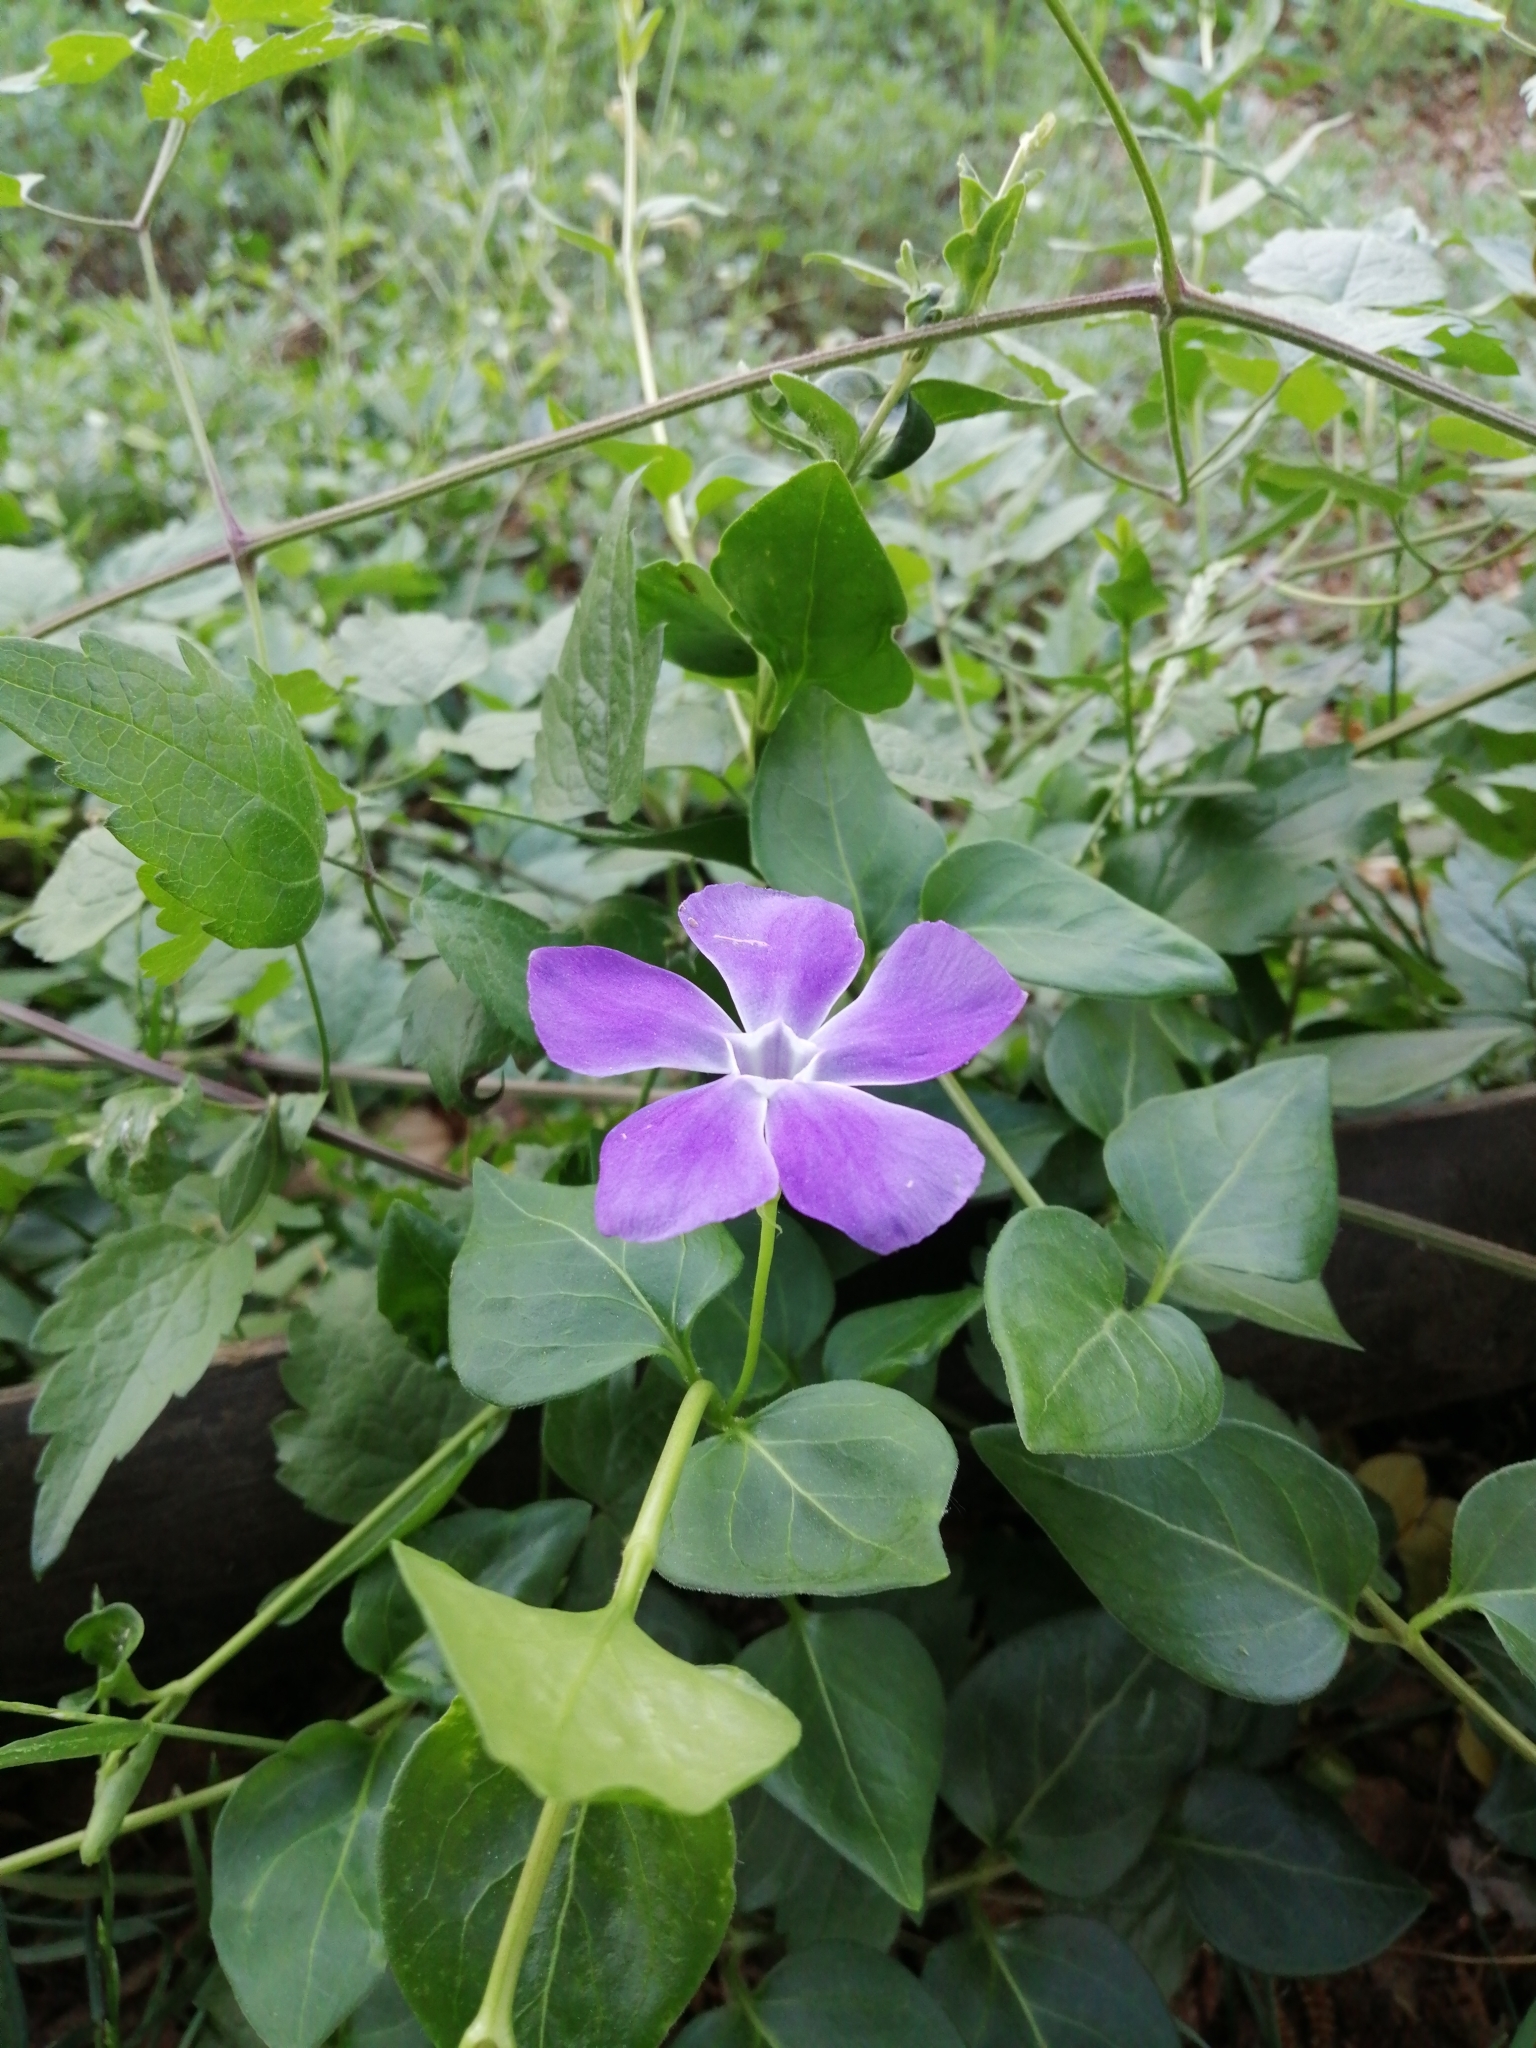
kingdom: Plantae
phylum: Tracheophyta
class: Magnoliopsida
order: Gentianales
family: Apocynaceae
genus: Vinca
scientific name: Vinca major
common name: Greater periwinkle
